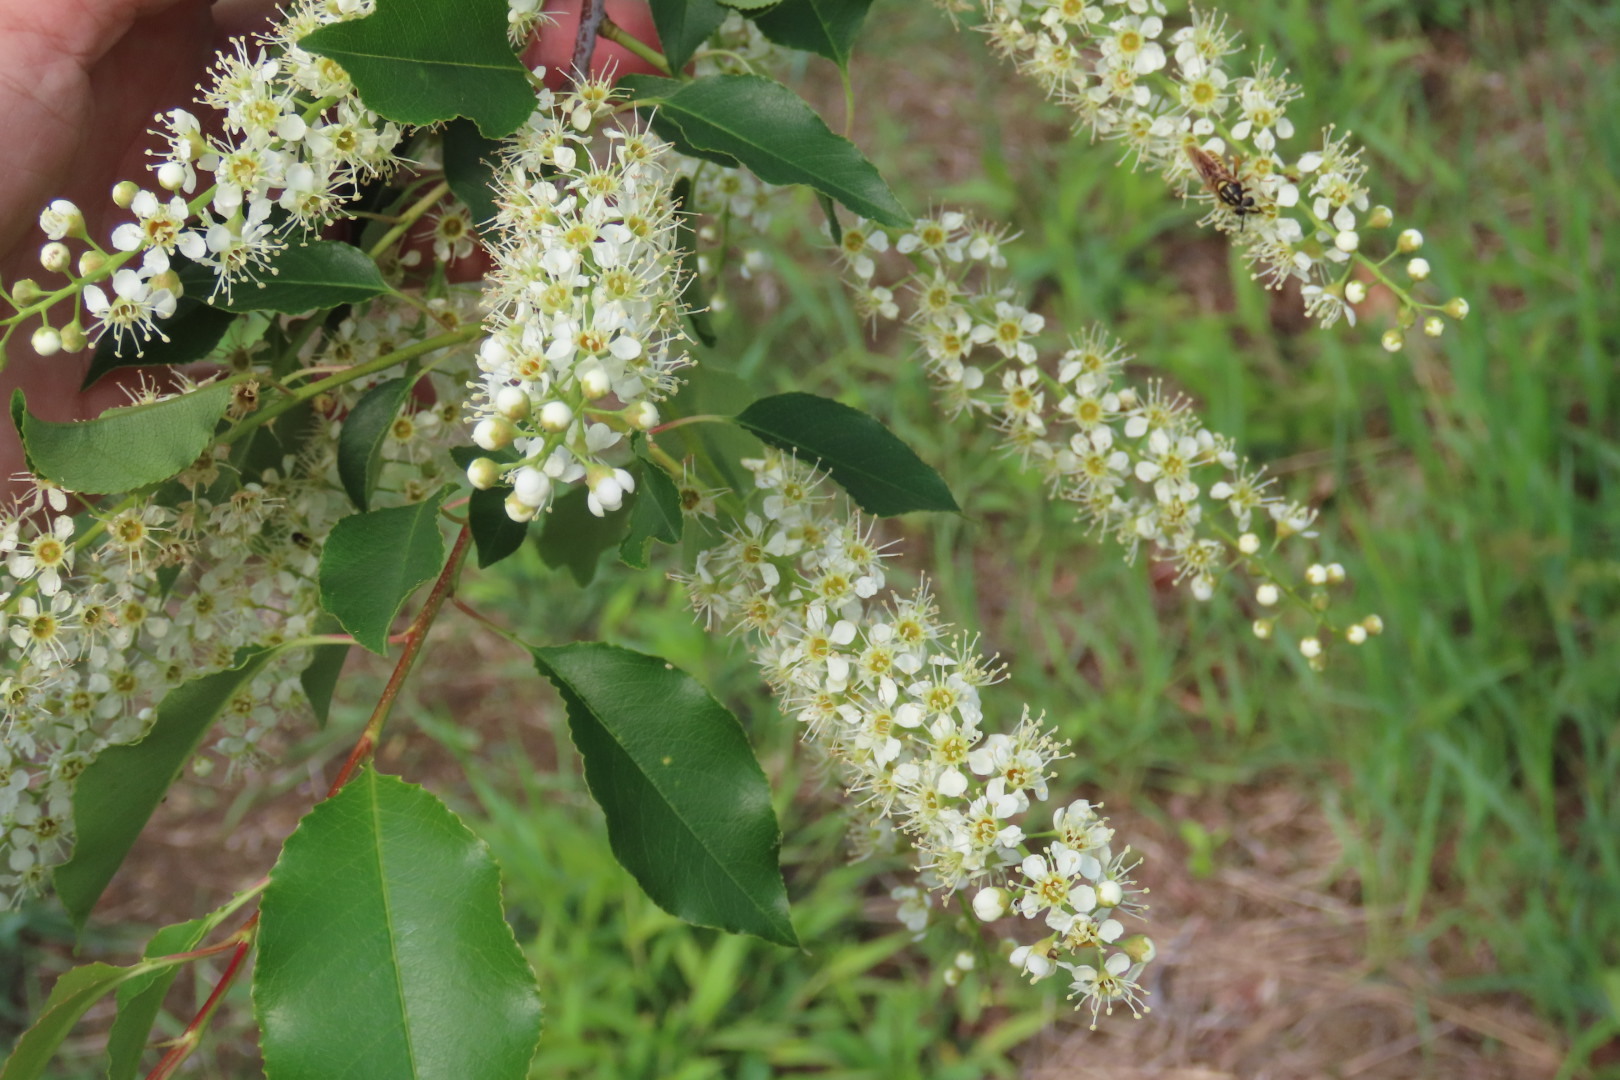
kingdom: Plantae
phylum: Tracheophyta
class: Magnoliopsida
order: Rosales
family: Rosaceae
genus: Prunus
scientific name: Prunus serotina
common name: Black cherry
